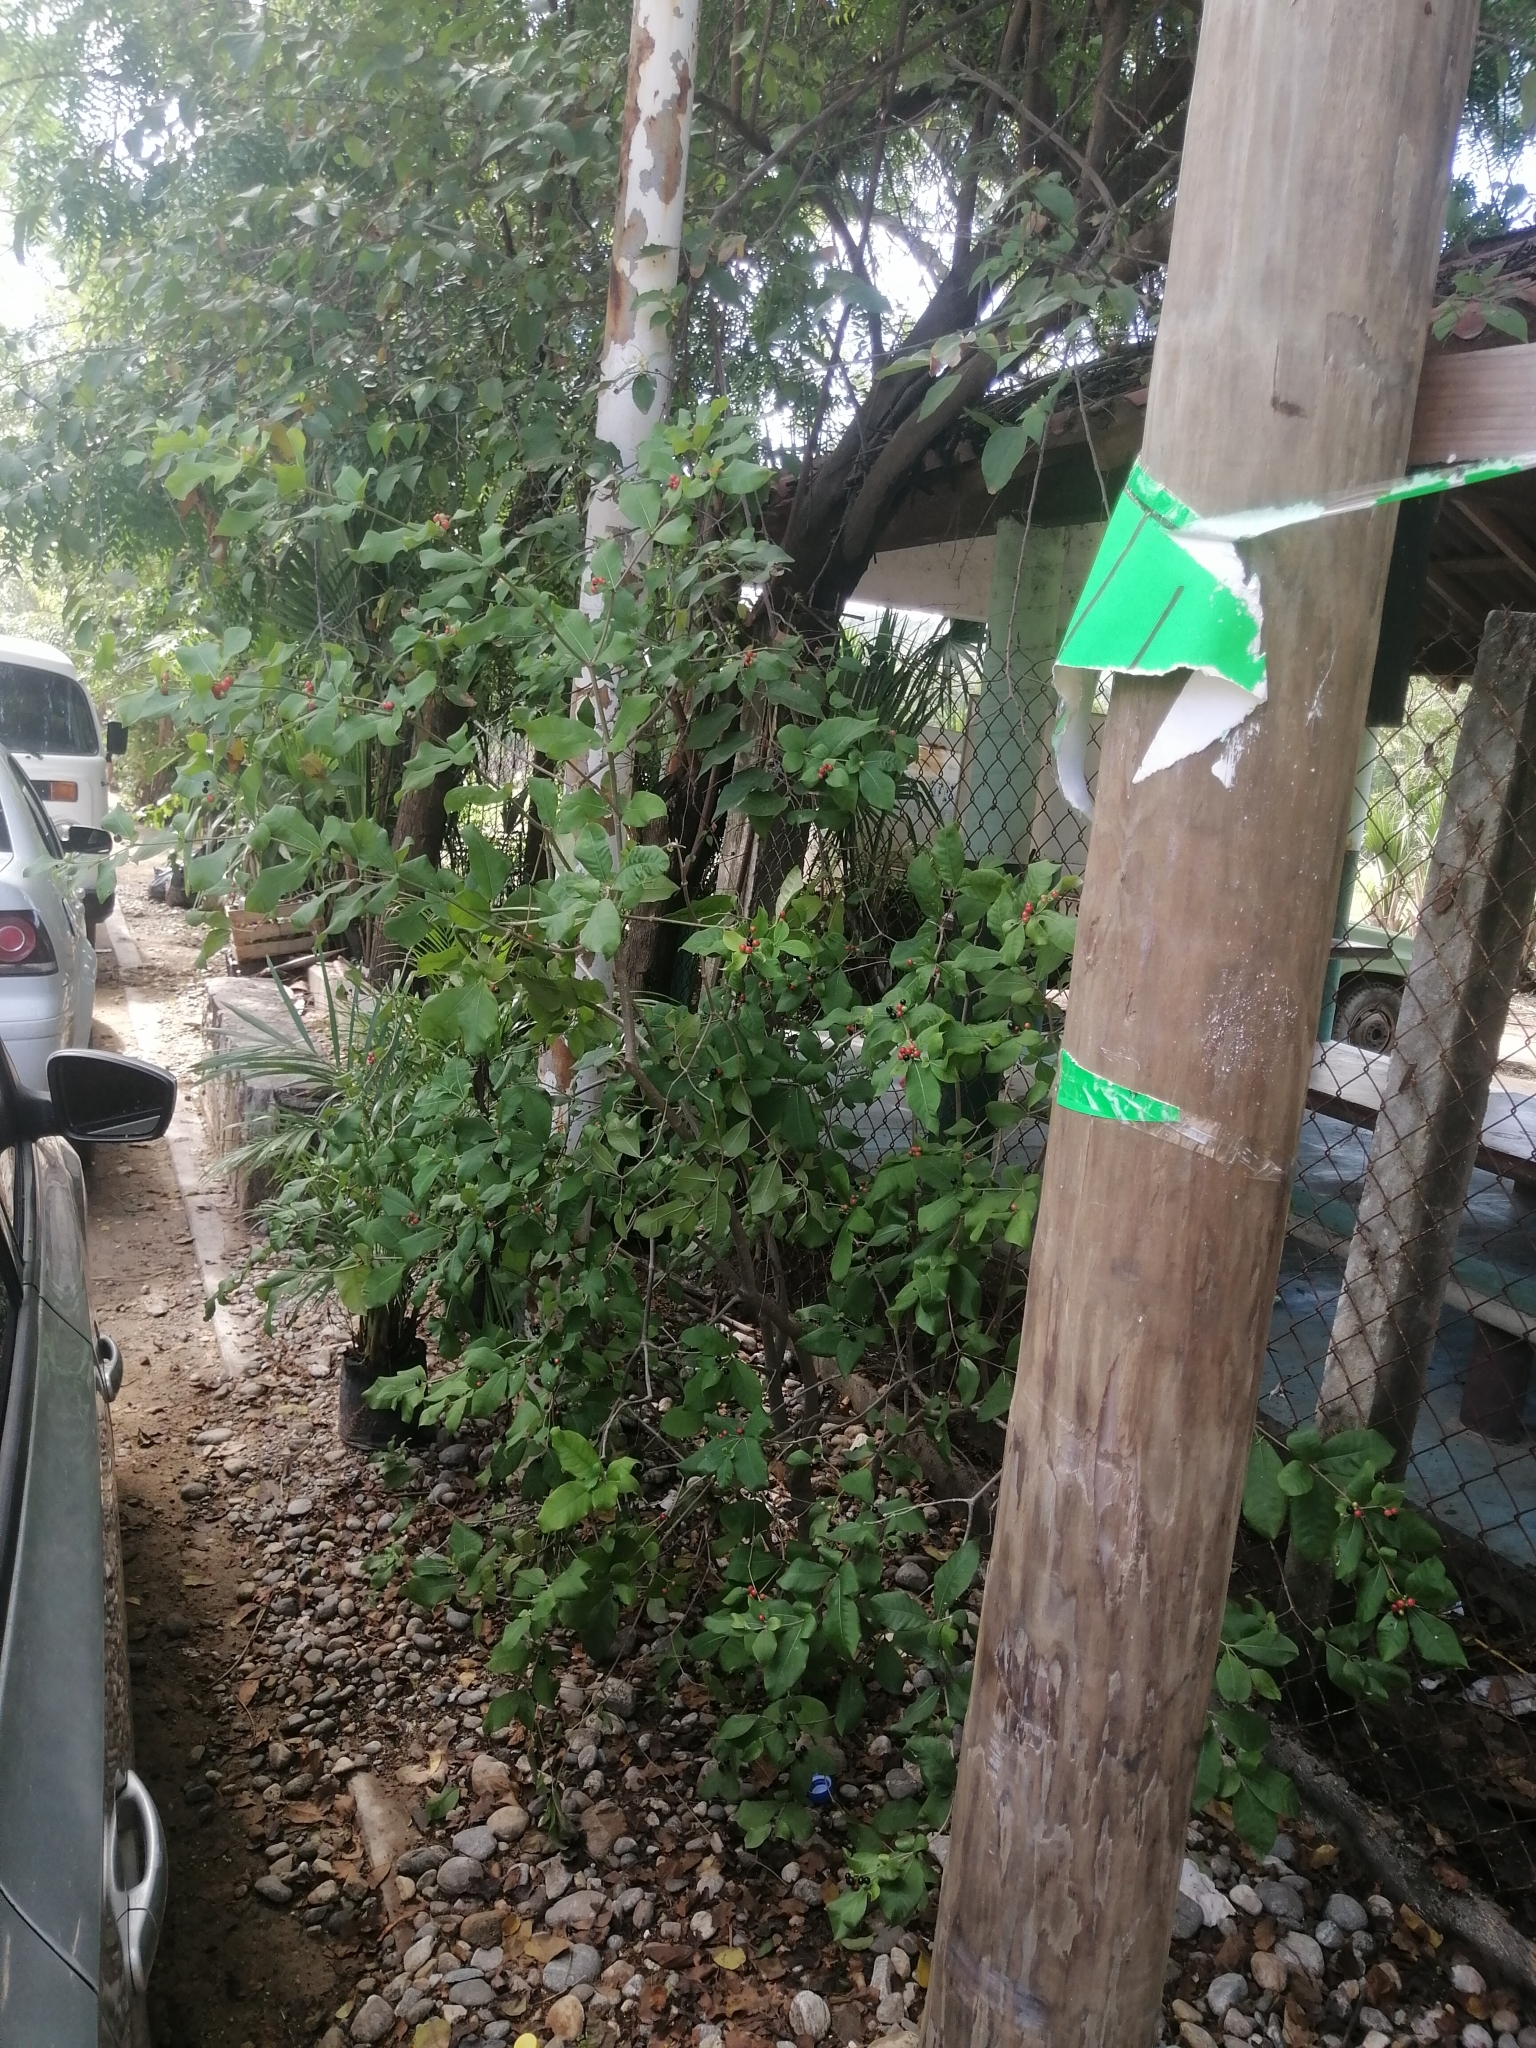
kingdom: Plantae
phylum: Tracheophyta
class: Magnoliopsida
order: Gentianales
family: Apocynaceae
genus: Rauvolfia
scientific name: Rauvolfia tetraphylla
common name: Four-leaf devil-pepper
